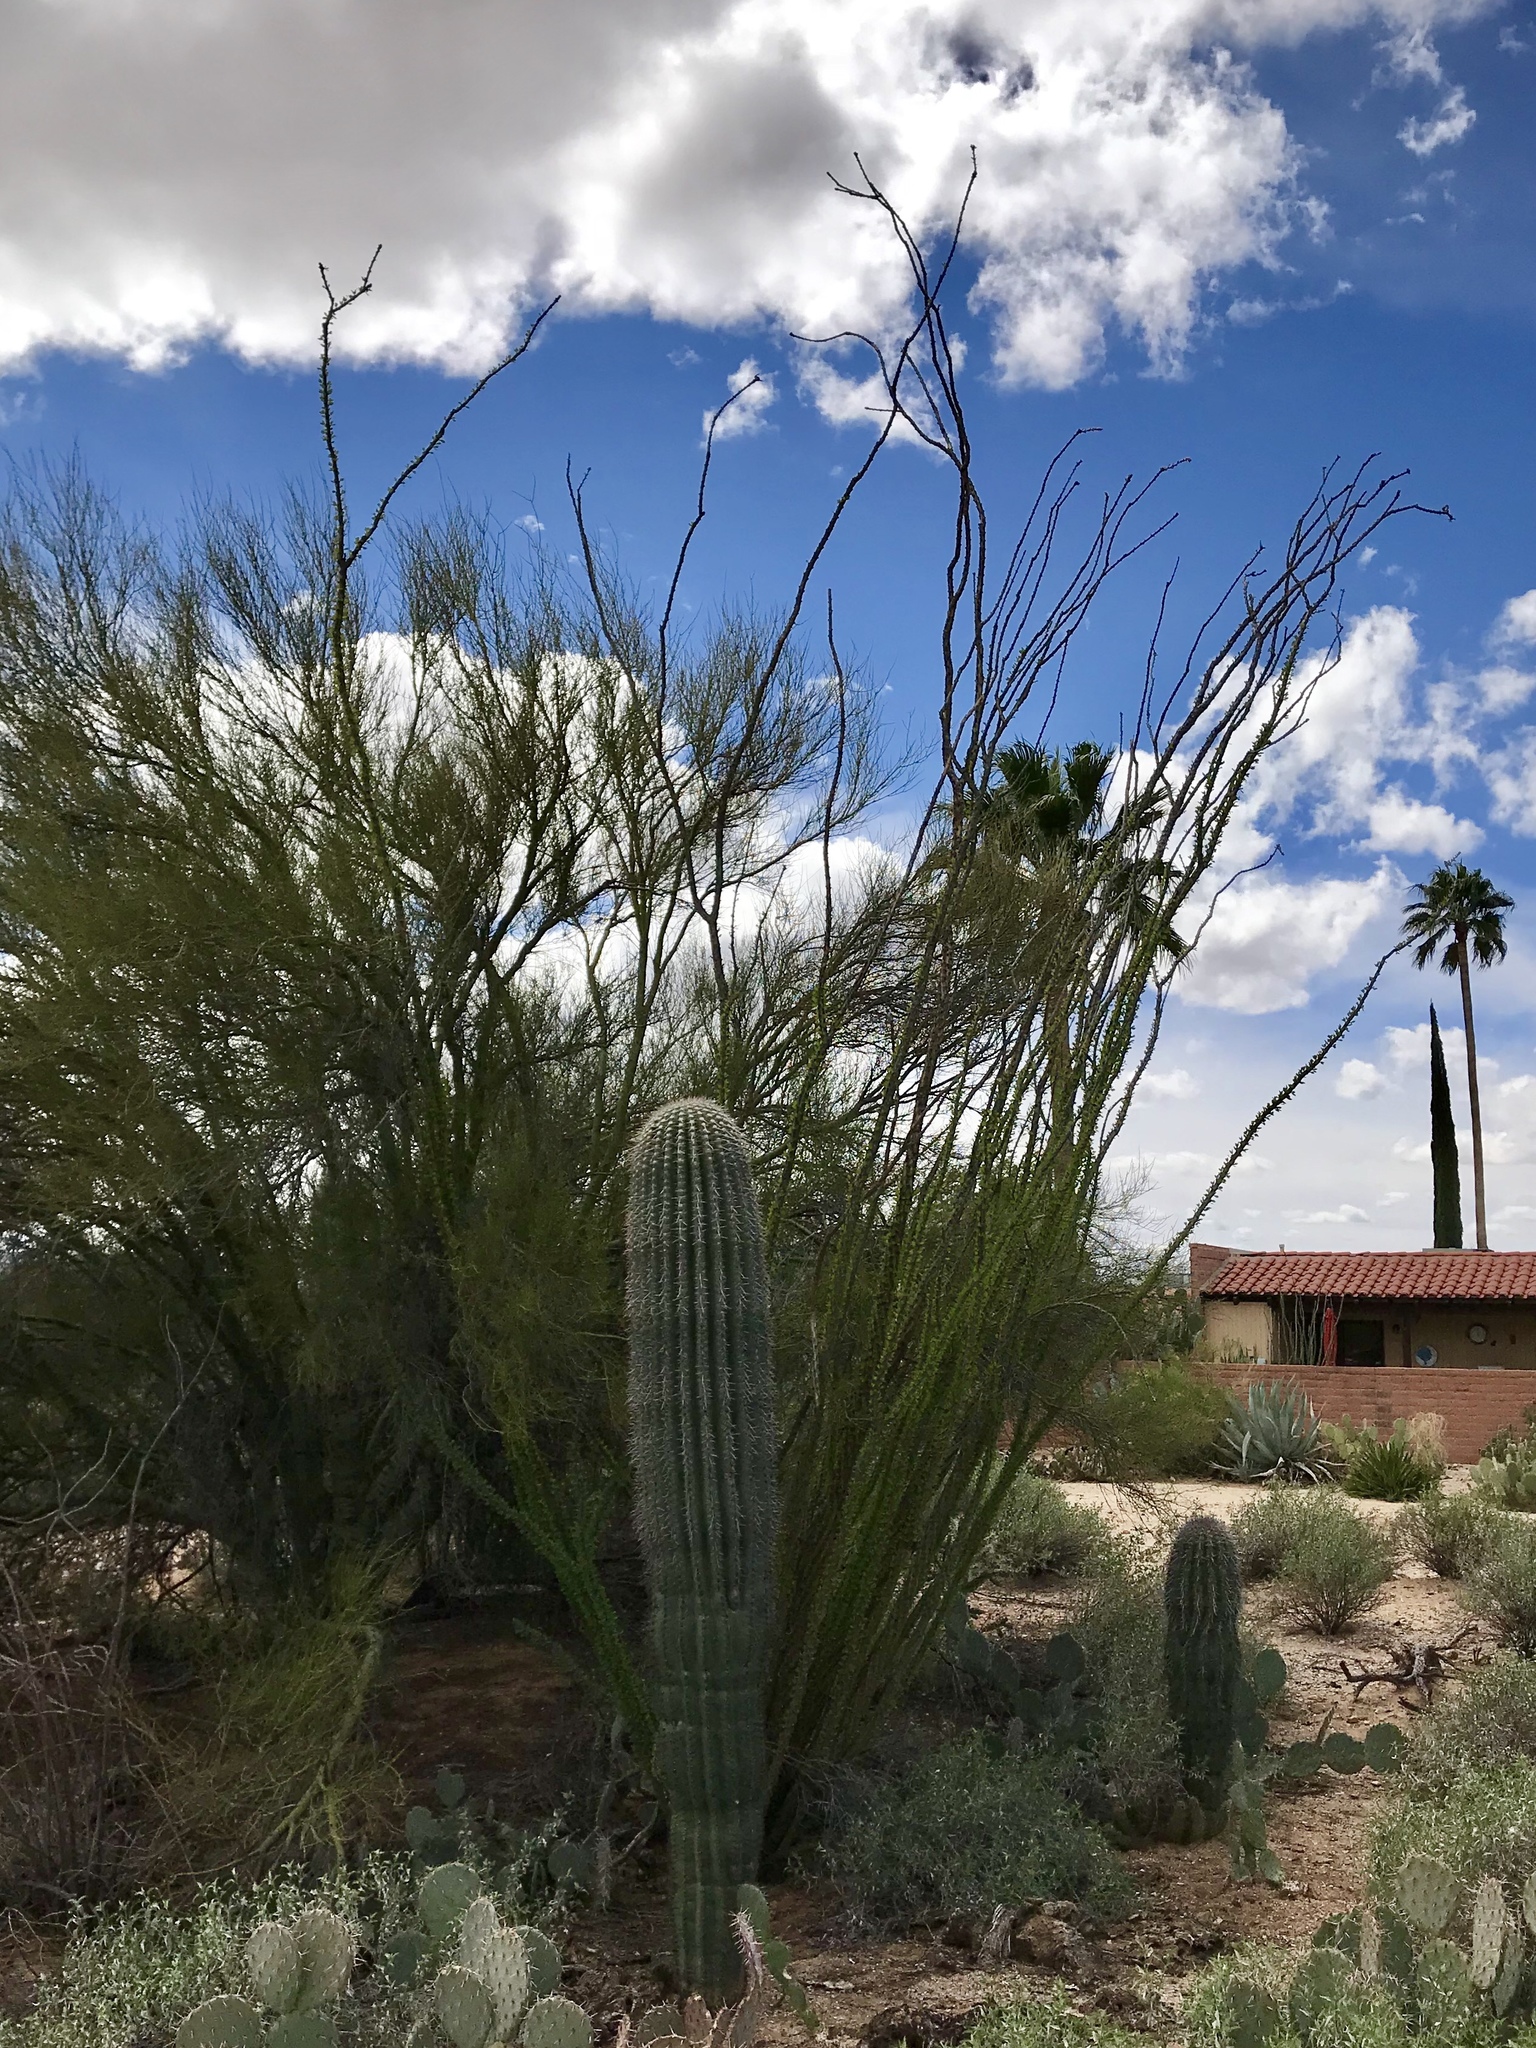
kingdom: Plantae
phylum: Tracheophyta
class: Magnoliopsida
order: Ericales
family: Fouquieriaceae
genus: Fouquieria
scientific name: Fouquieria splendens
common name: Vine-cactus
